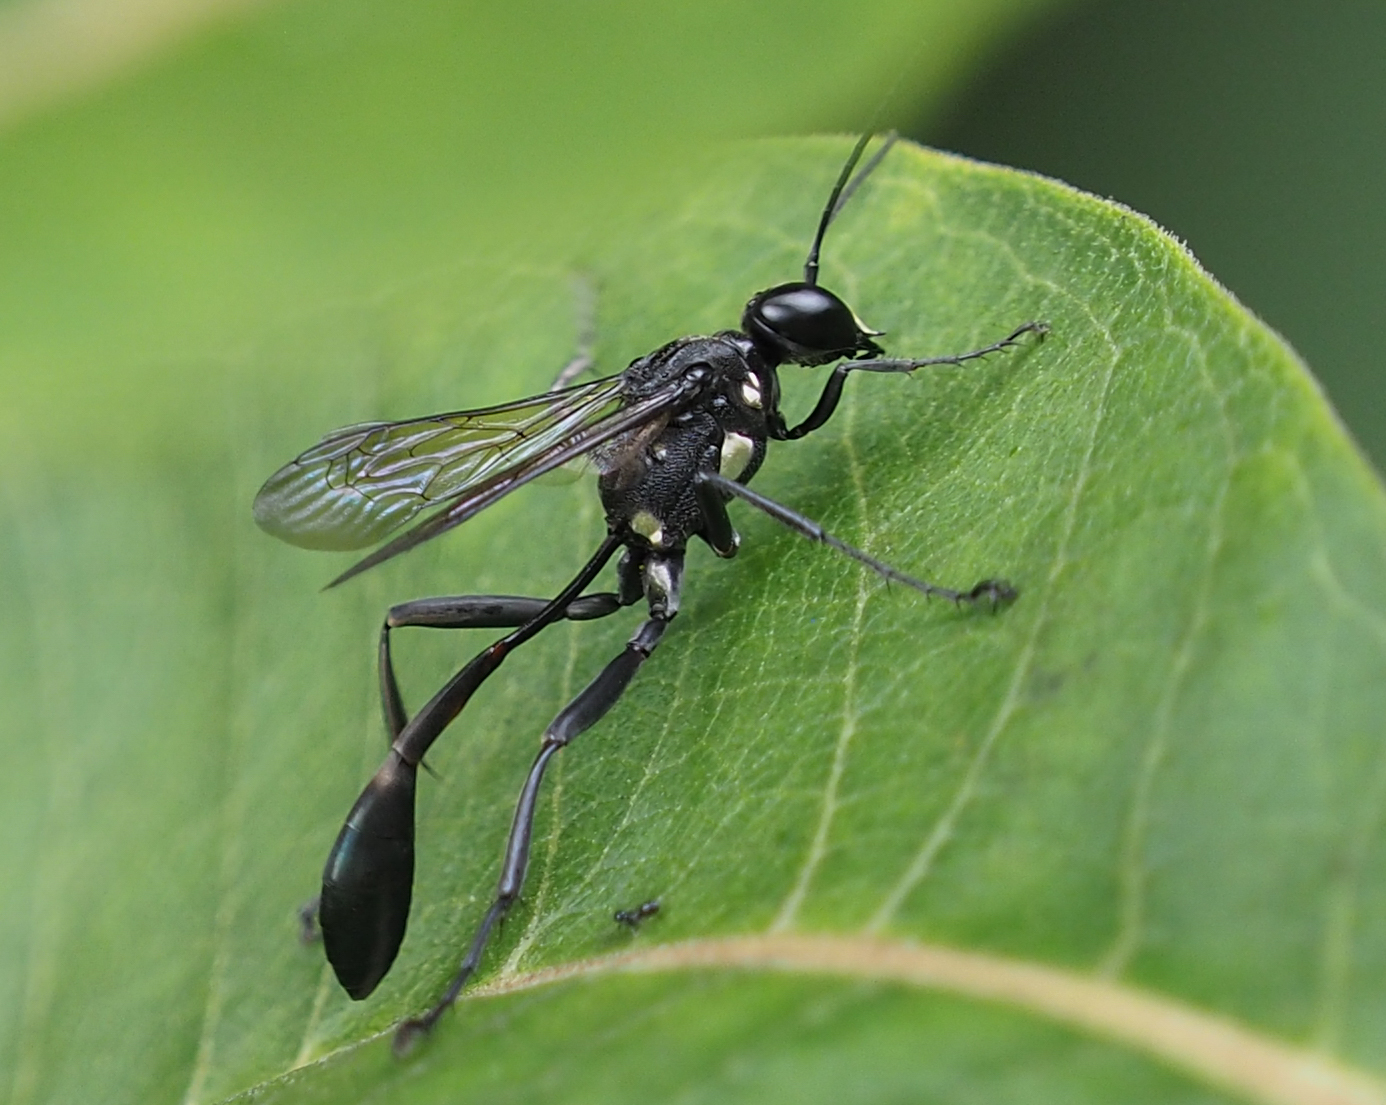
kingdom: Animalia
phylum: Arthropoda
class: Insecta
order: Hymenoptera
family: Sphecidae
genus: Eremnophila
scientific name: Eremnophila aureonotata
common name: Gold-marked thread-waisted wasp
